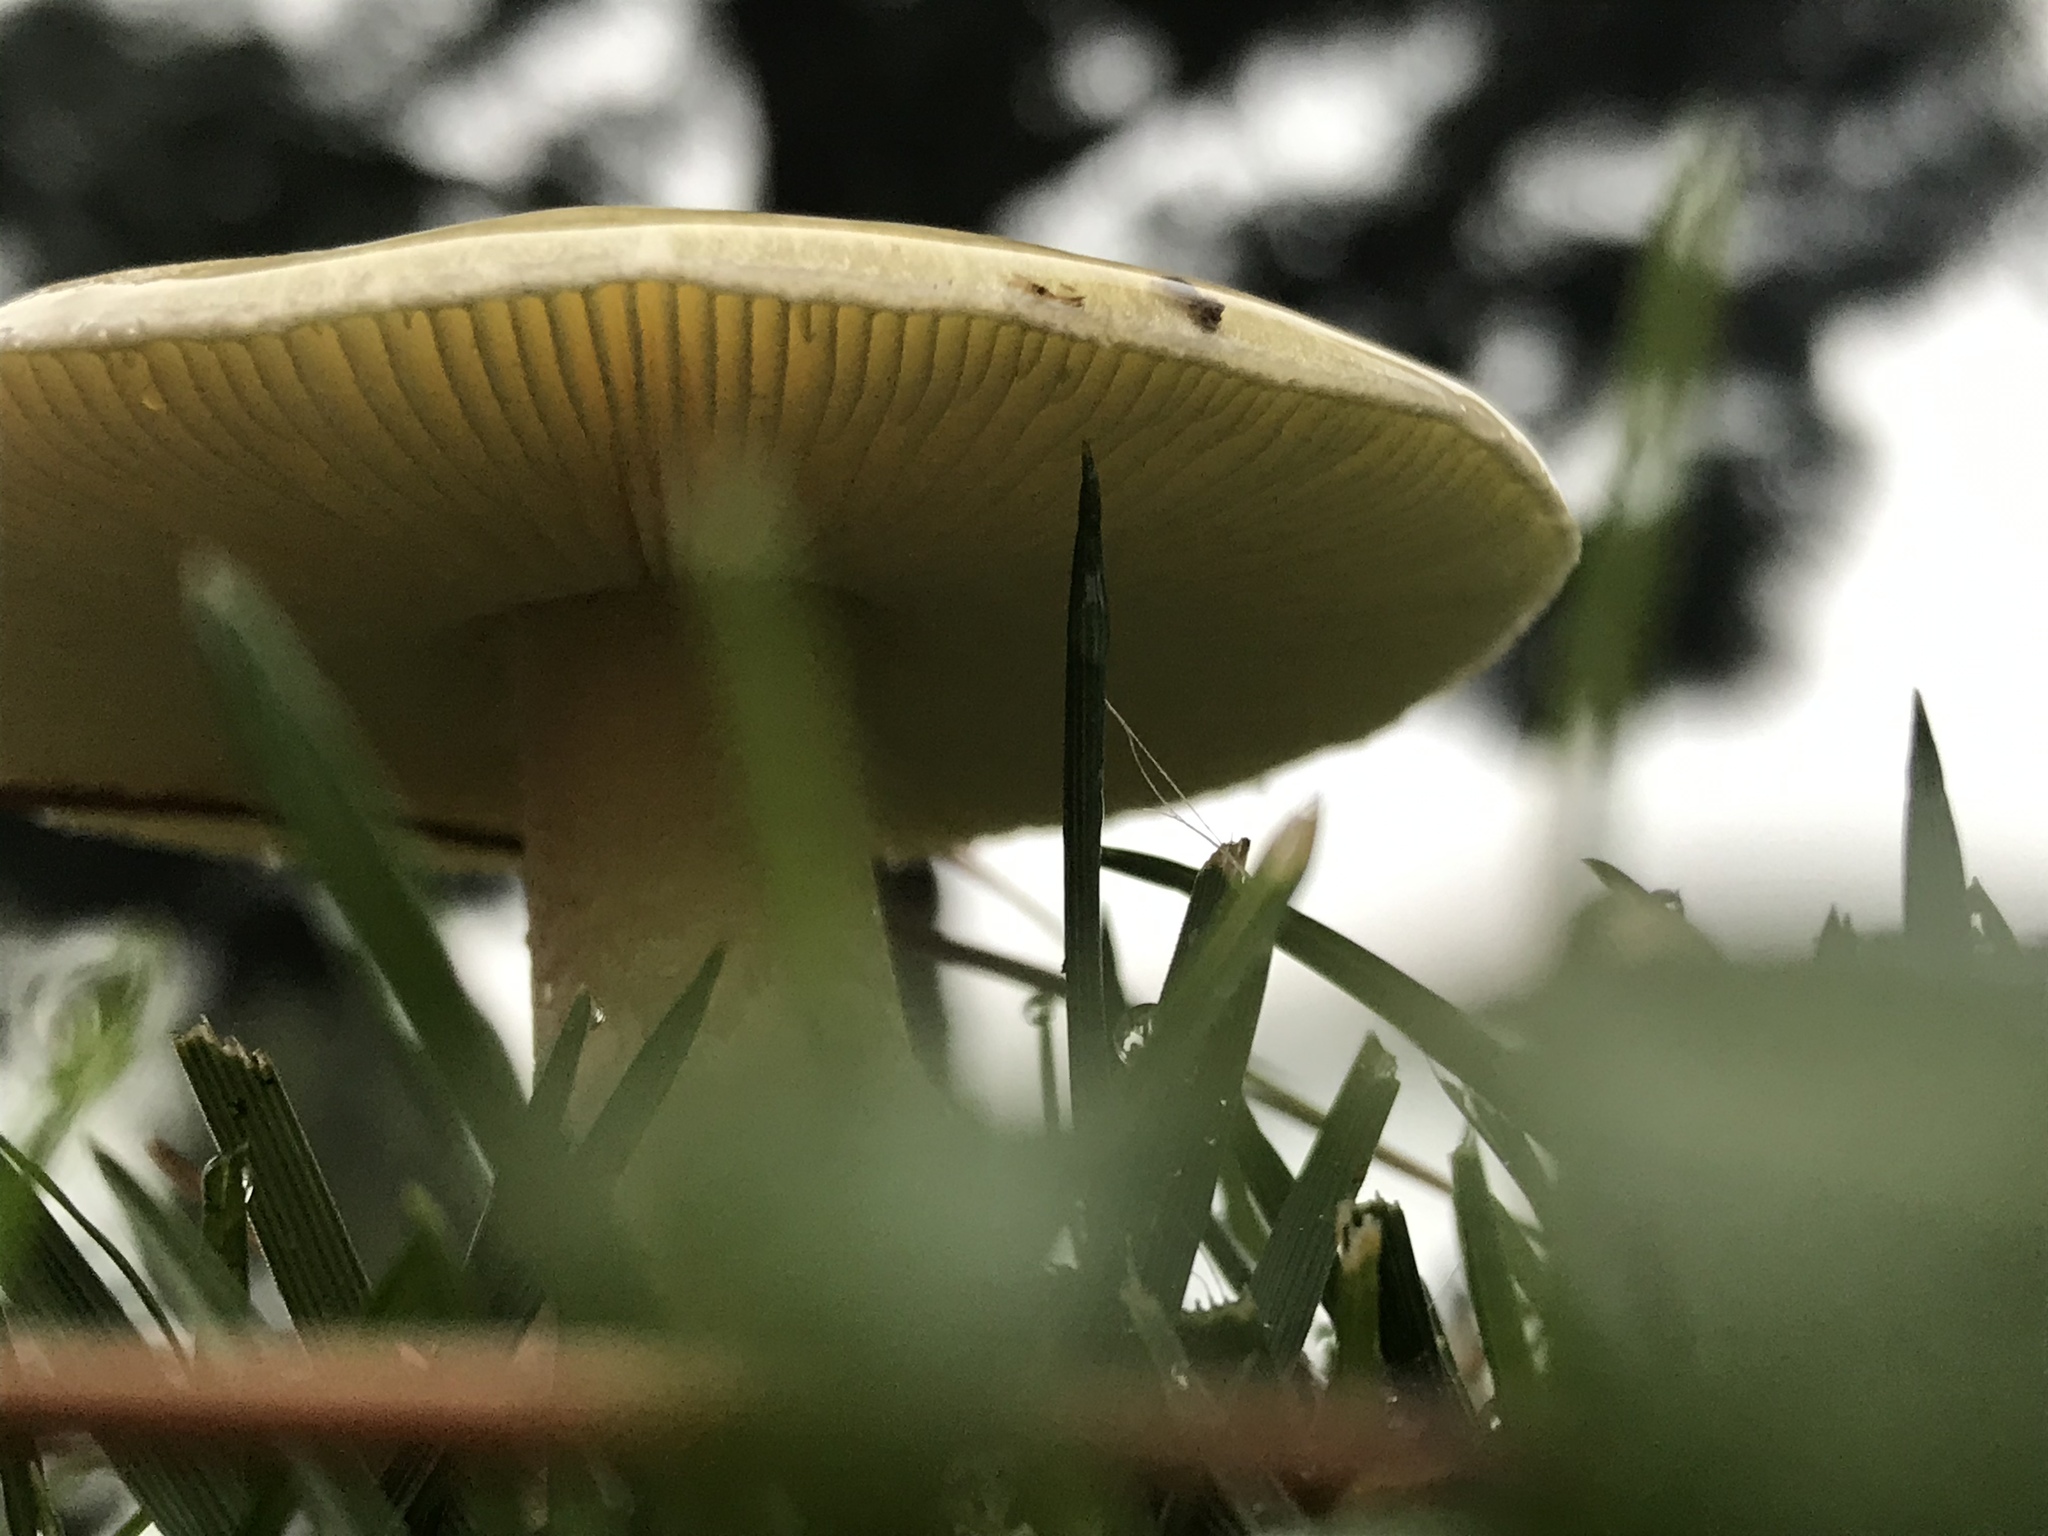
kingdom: Fungi
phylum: Basidiomycota
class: Agaricomycetes
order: Agaricales
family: Amanitaceae
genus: Amanita
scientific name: Amanita phalloides
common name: Death cap
